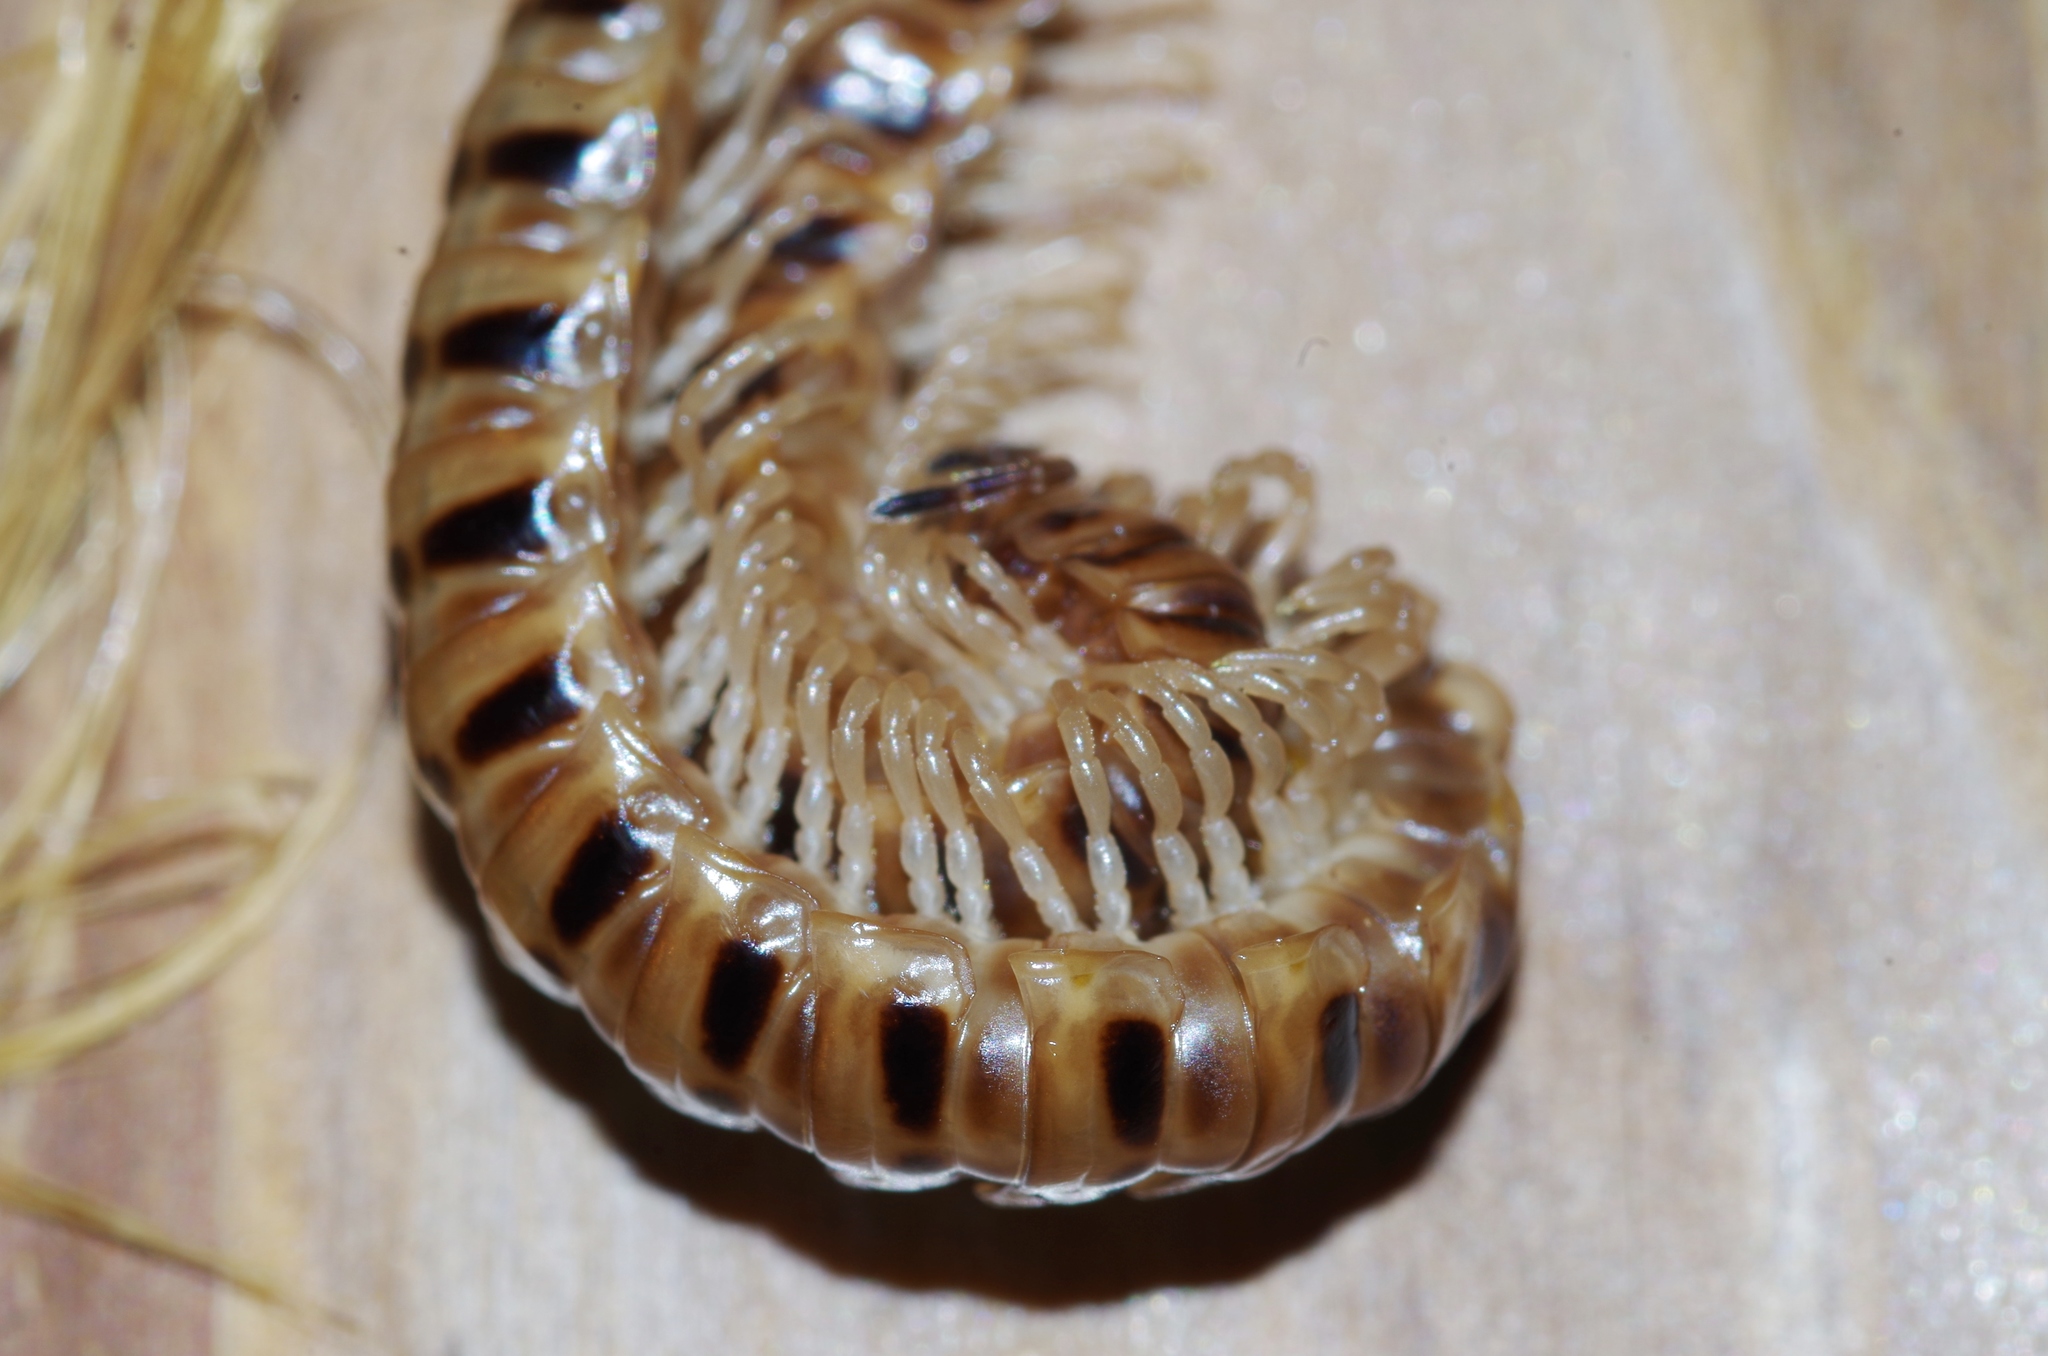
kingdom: Animalia
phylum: Arthropoda
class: Diplopoda
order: Polydesmida
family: Paradoxosomatidae
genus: Chamberlinius
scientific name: Chamberlinius hualienensis
